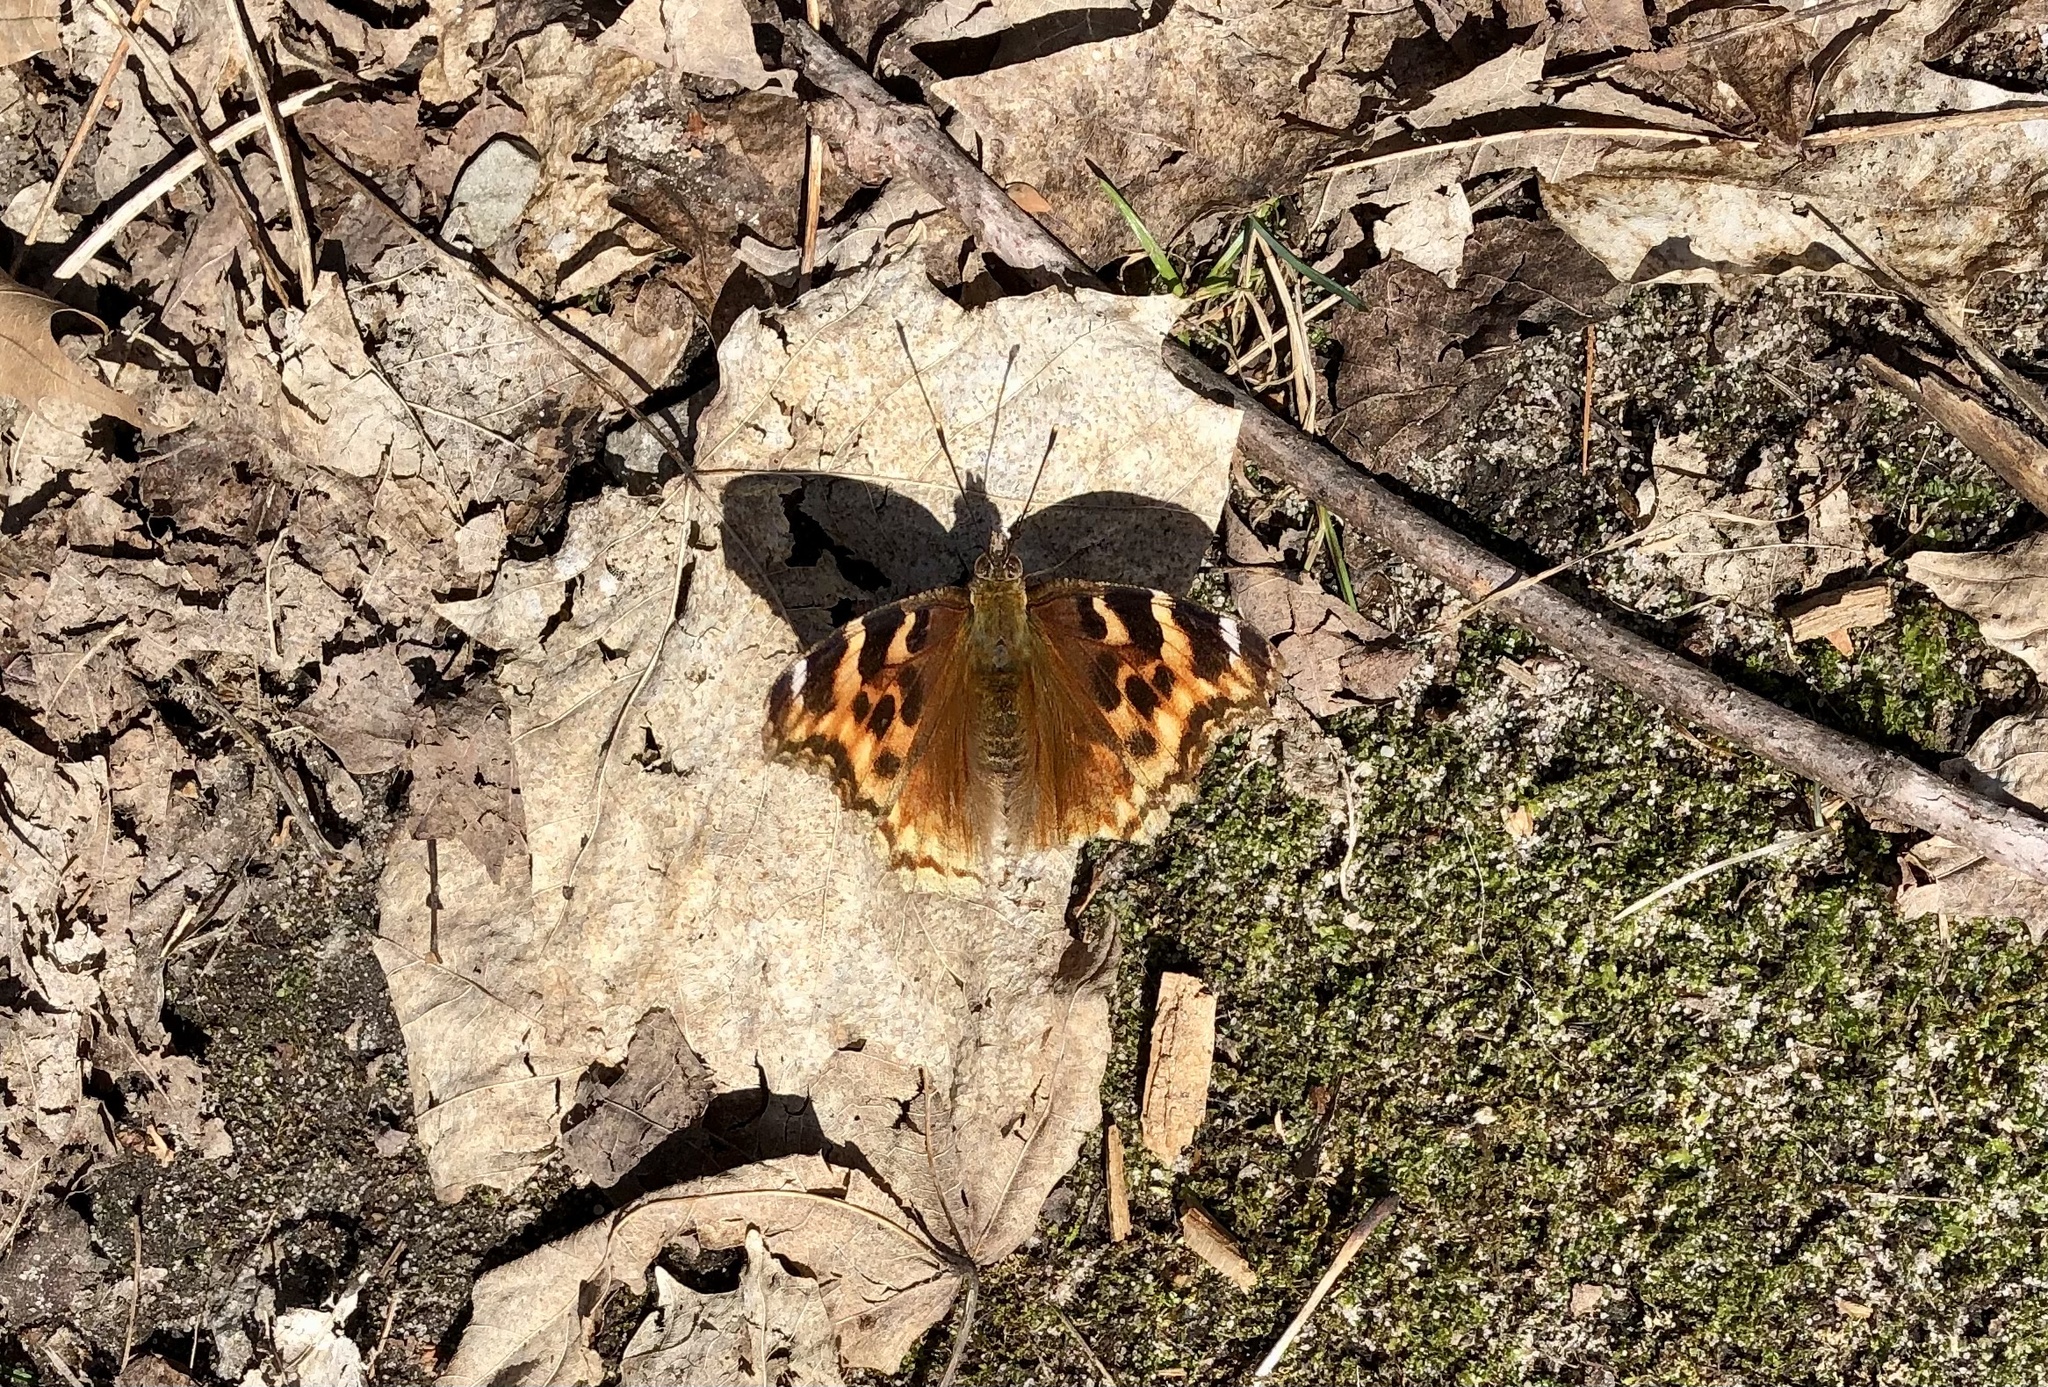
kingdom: Animalia
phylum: Arthropoda
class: Insecta
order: Lepidoptera
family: Nymphalidae
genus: Polygonia
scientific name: Polygonia vaualbum
